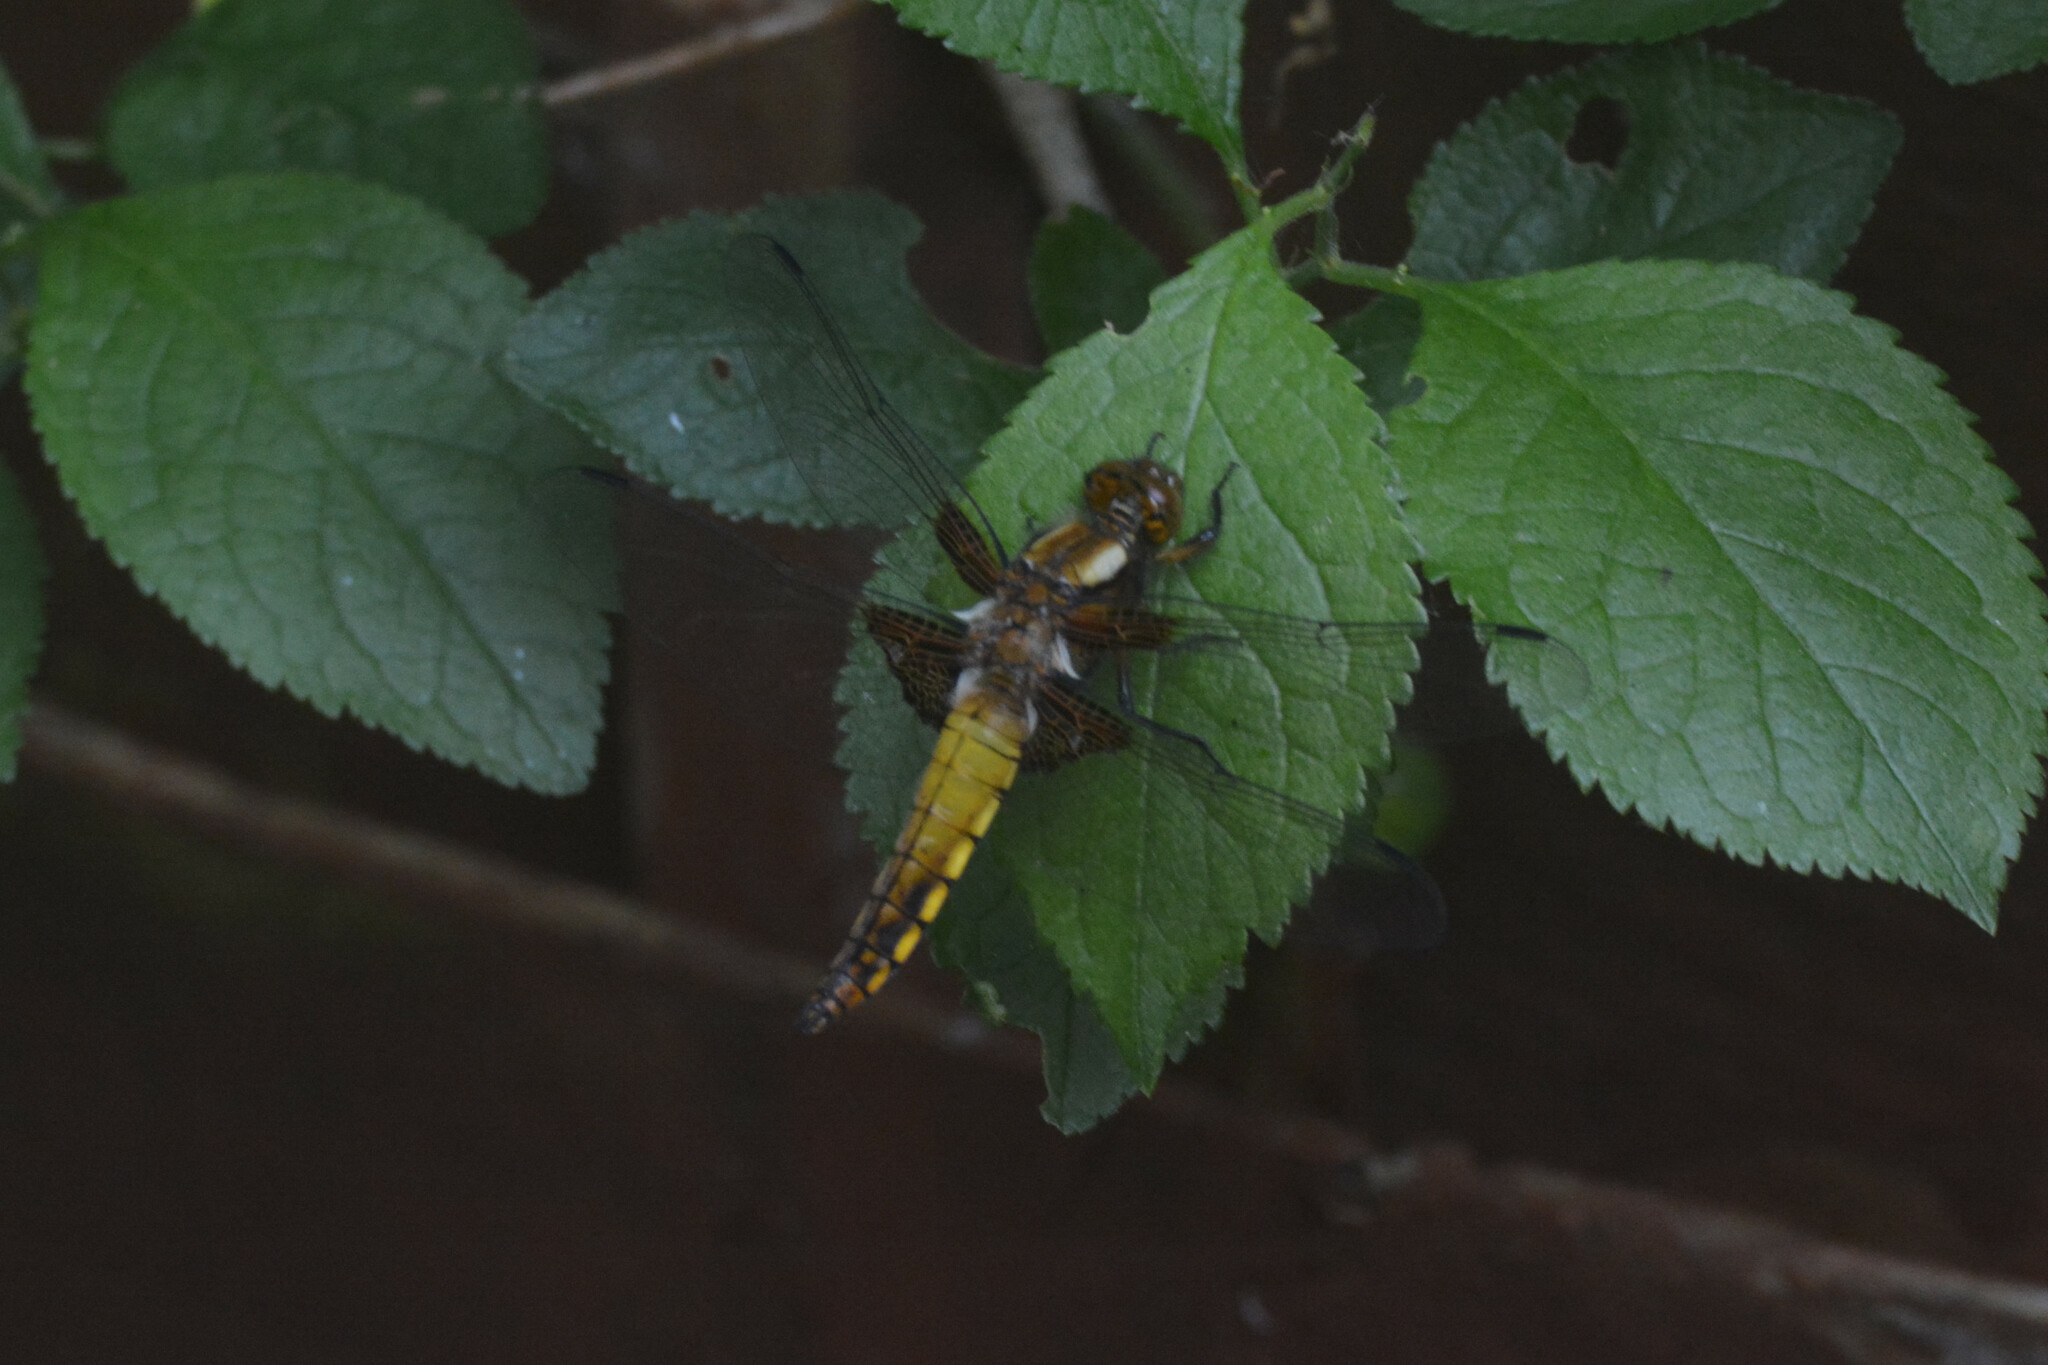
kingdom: Animalia
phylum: Arthropoda
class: Insecta
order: Odonata
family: Libellulidae
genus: Libellula
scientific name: Libellula depressa
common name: Broad-bodied chaser
